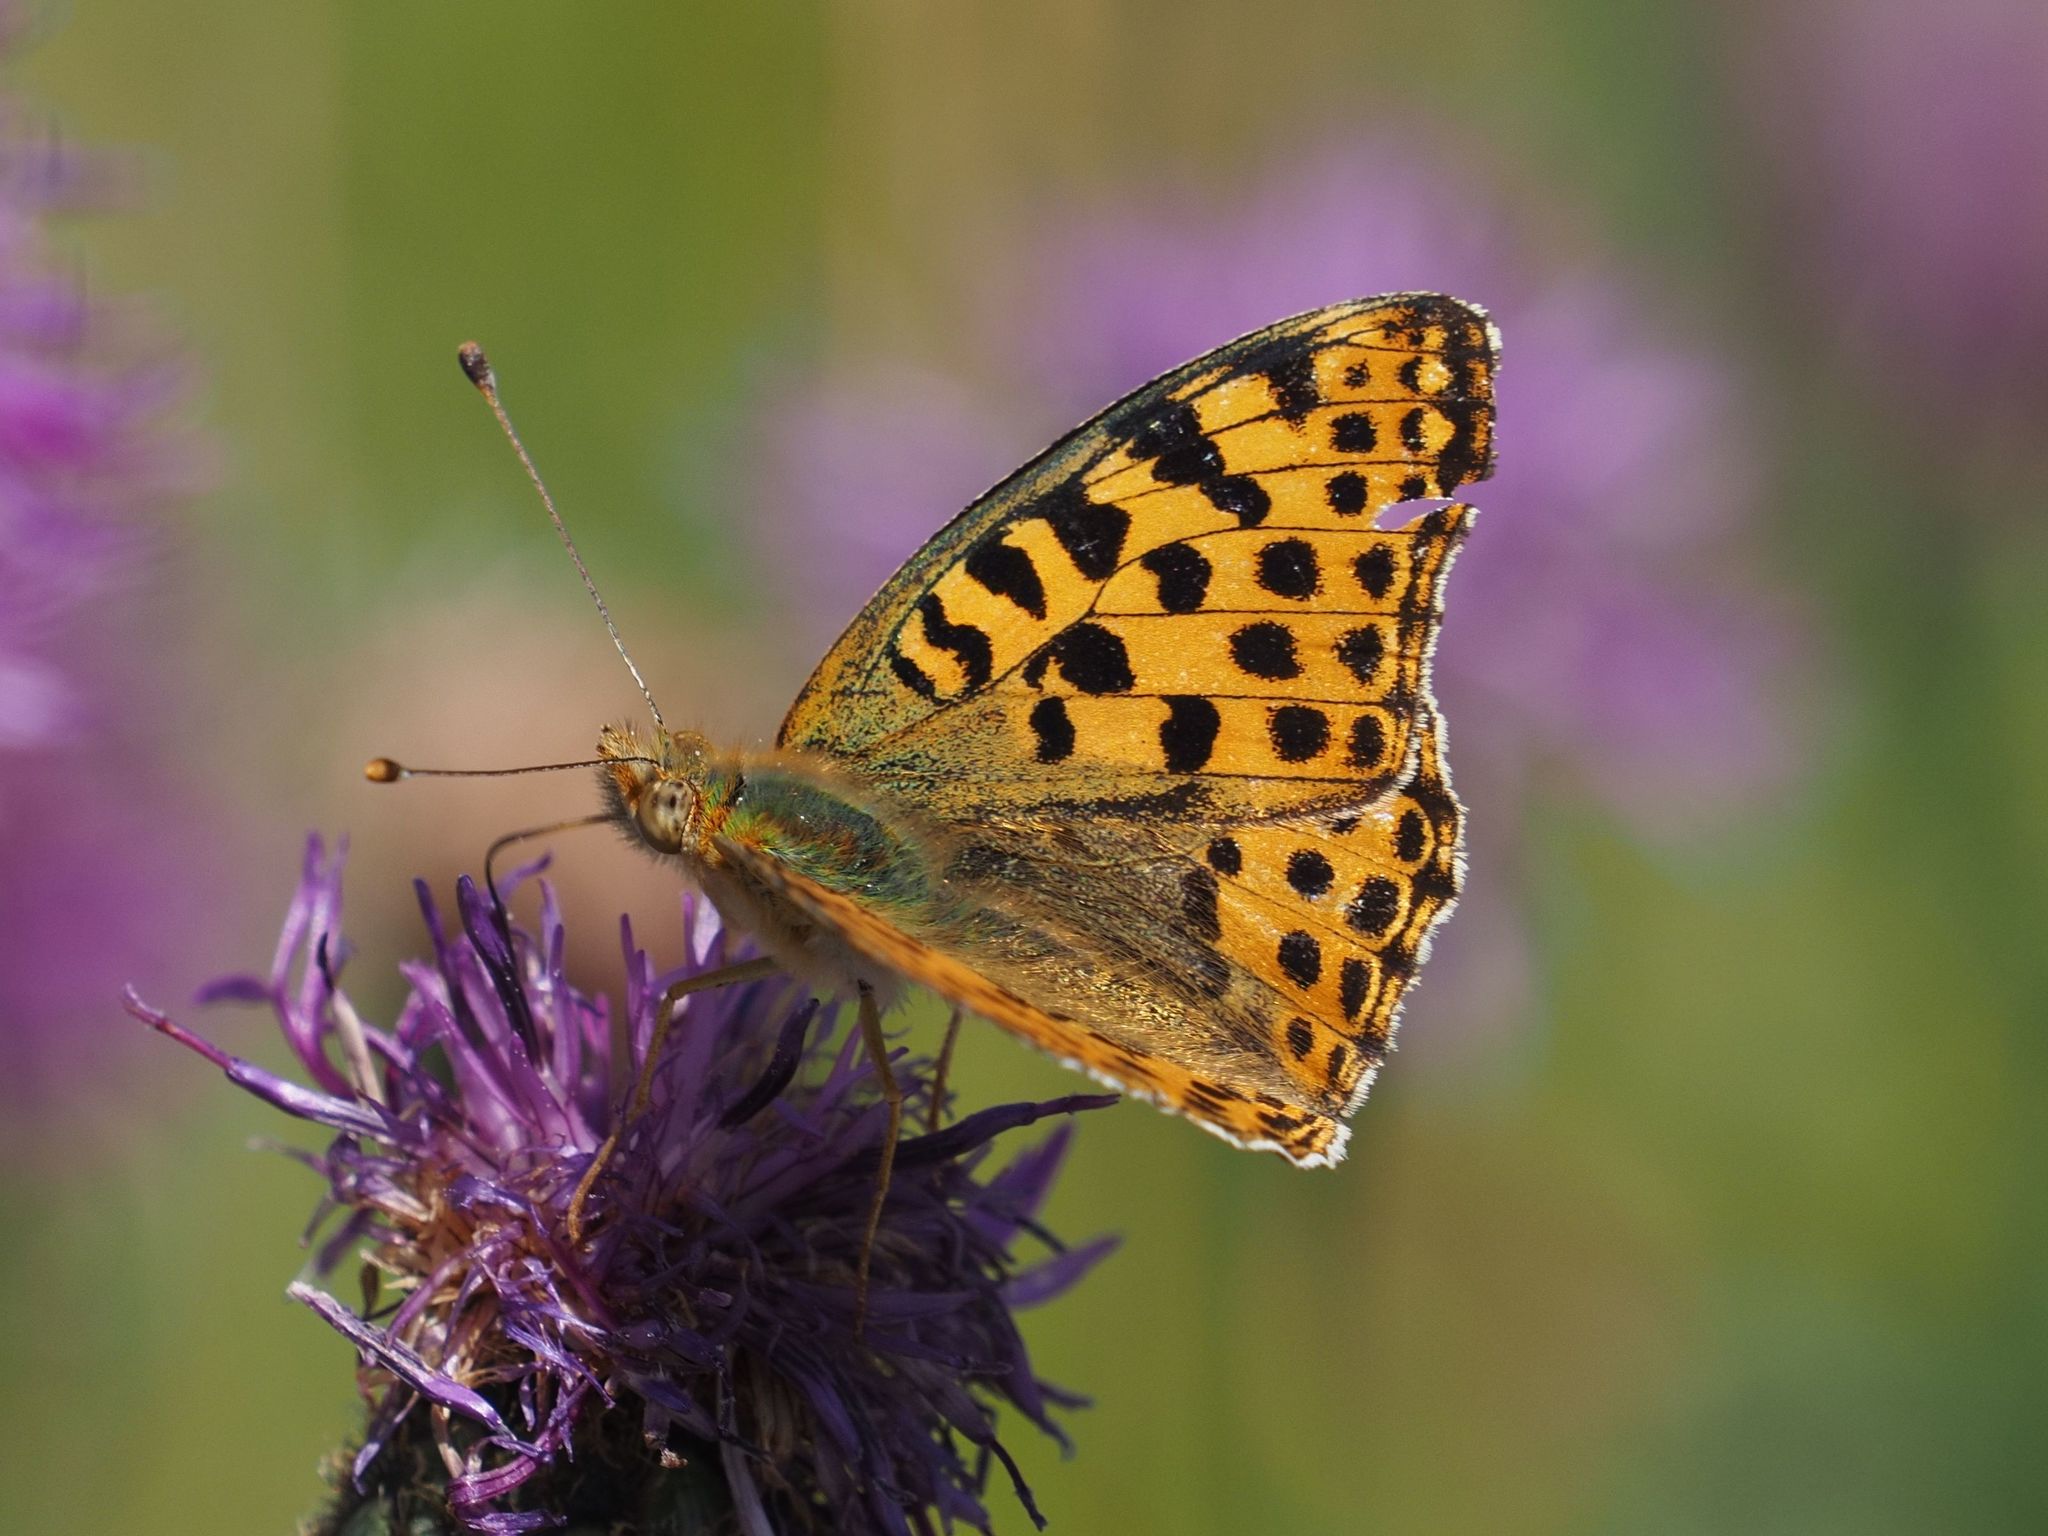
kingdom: Animalia
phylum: Arthropoda
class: Insecta
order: Lepidoptera
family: Nymphalidae
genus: Issoria
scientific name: Issoria lathonia
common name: Queen of spain fritillary
